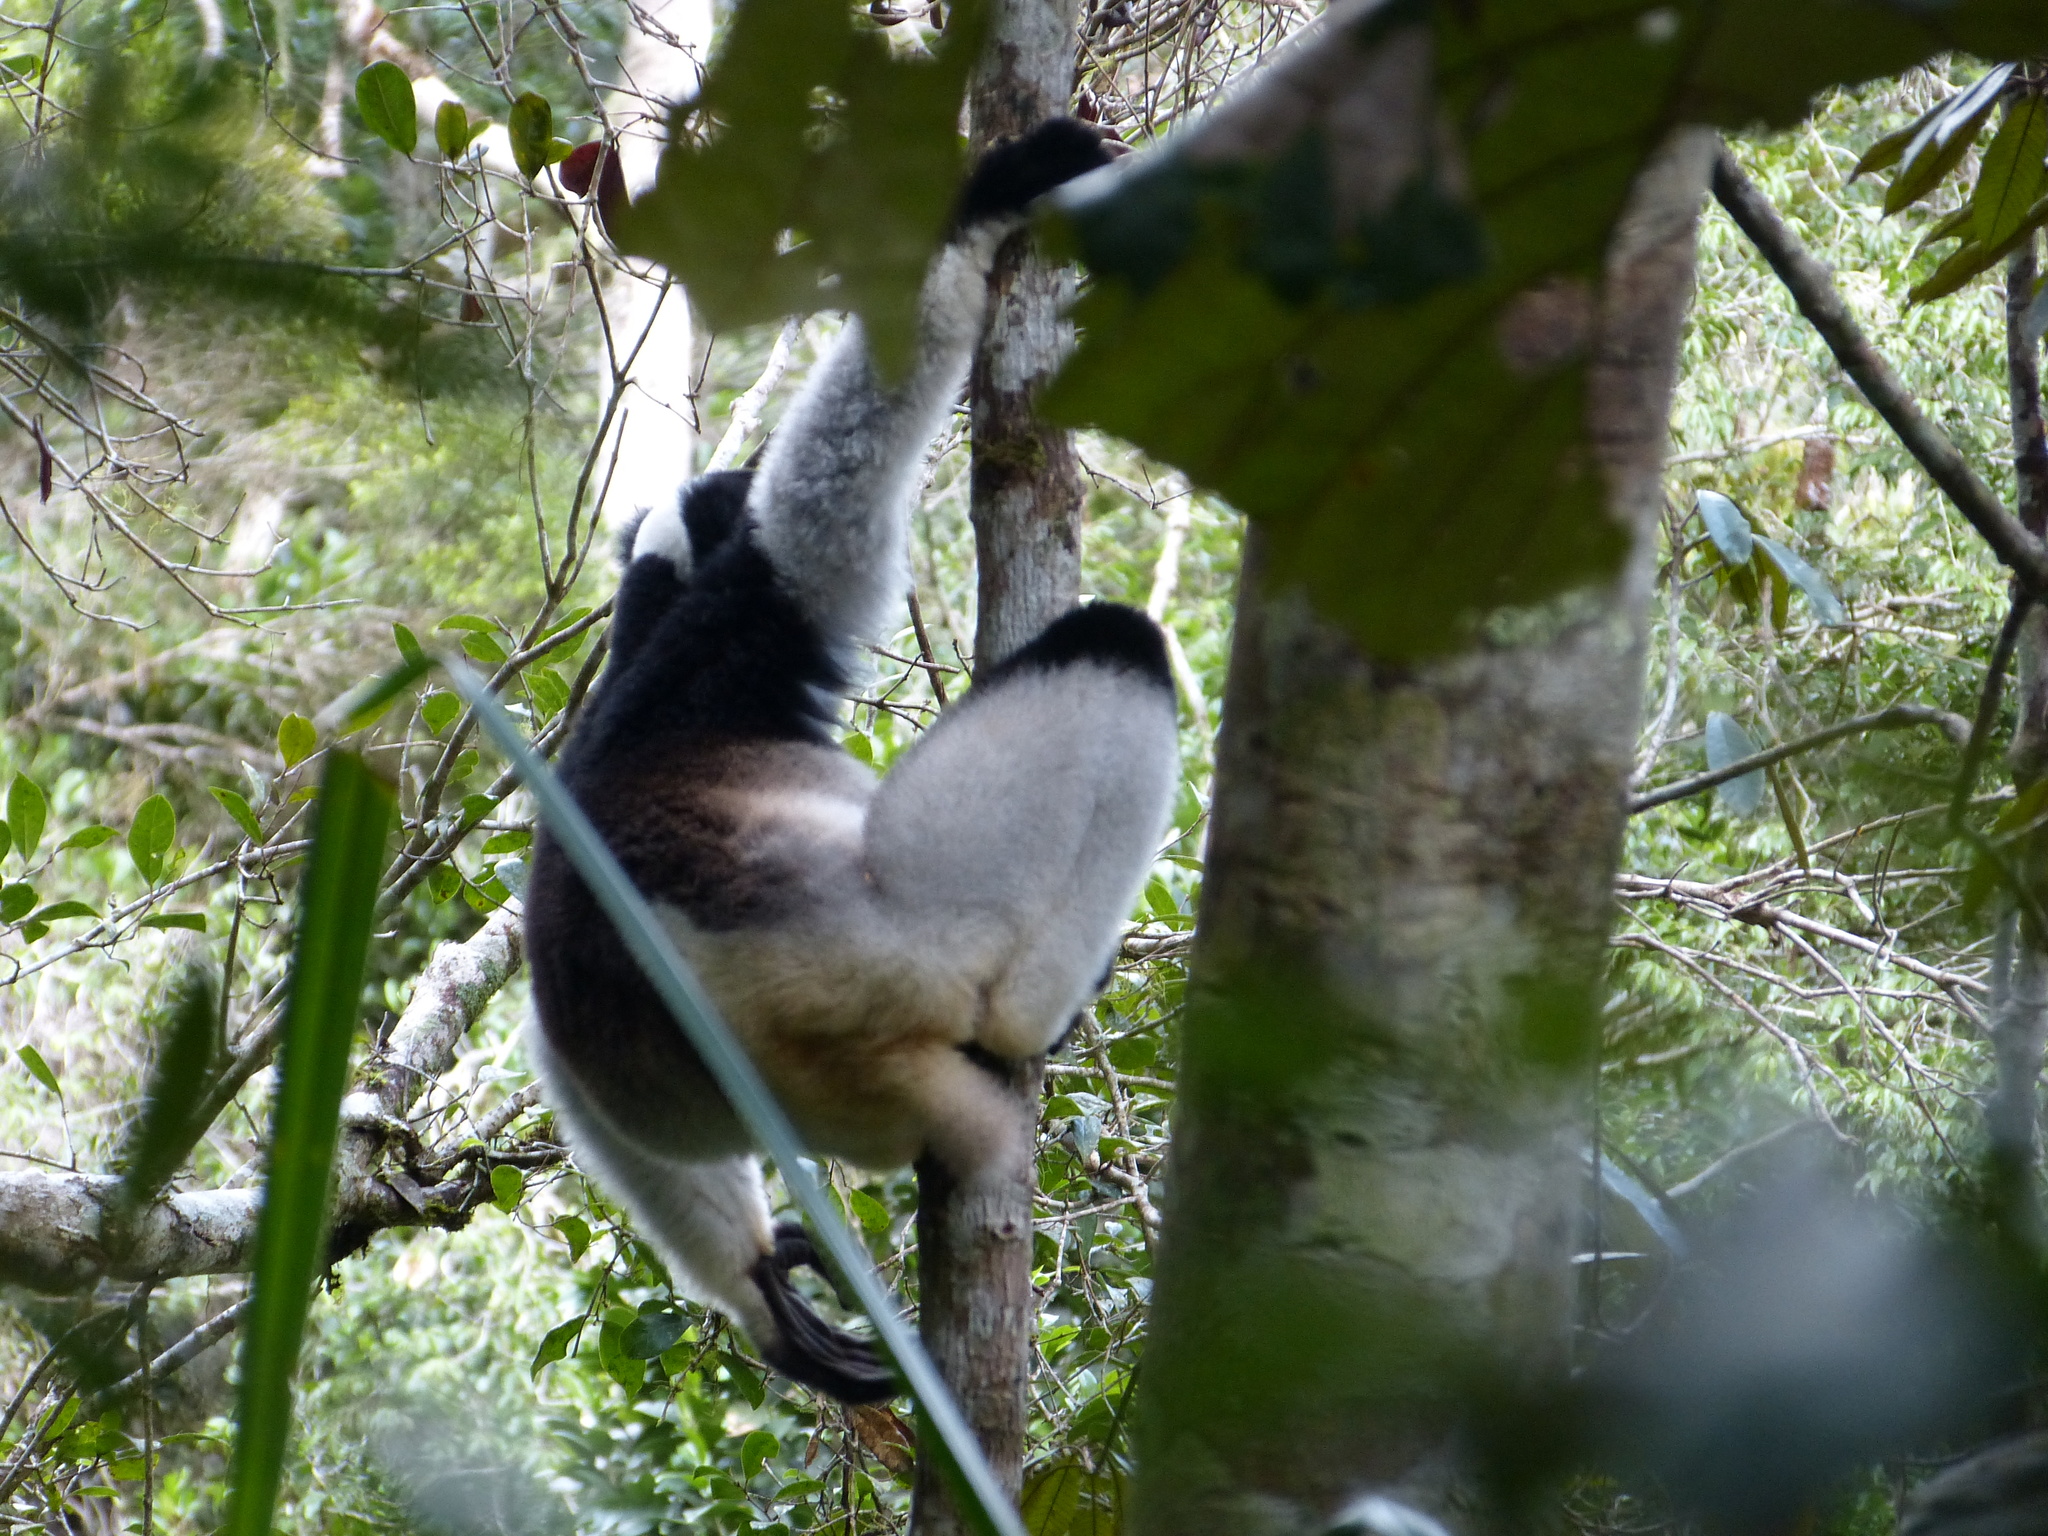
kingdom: Animalia
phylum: Chordata
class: Mammalia
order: Primates
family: Indriidae
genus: Indri
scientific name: Indri indri
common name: Indri
